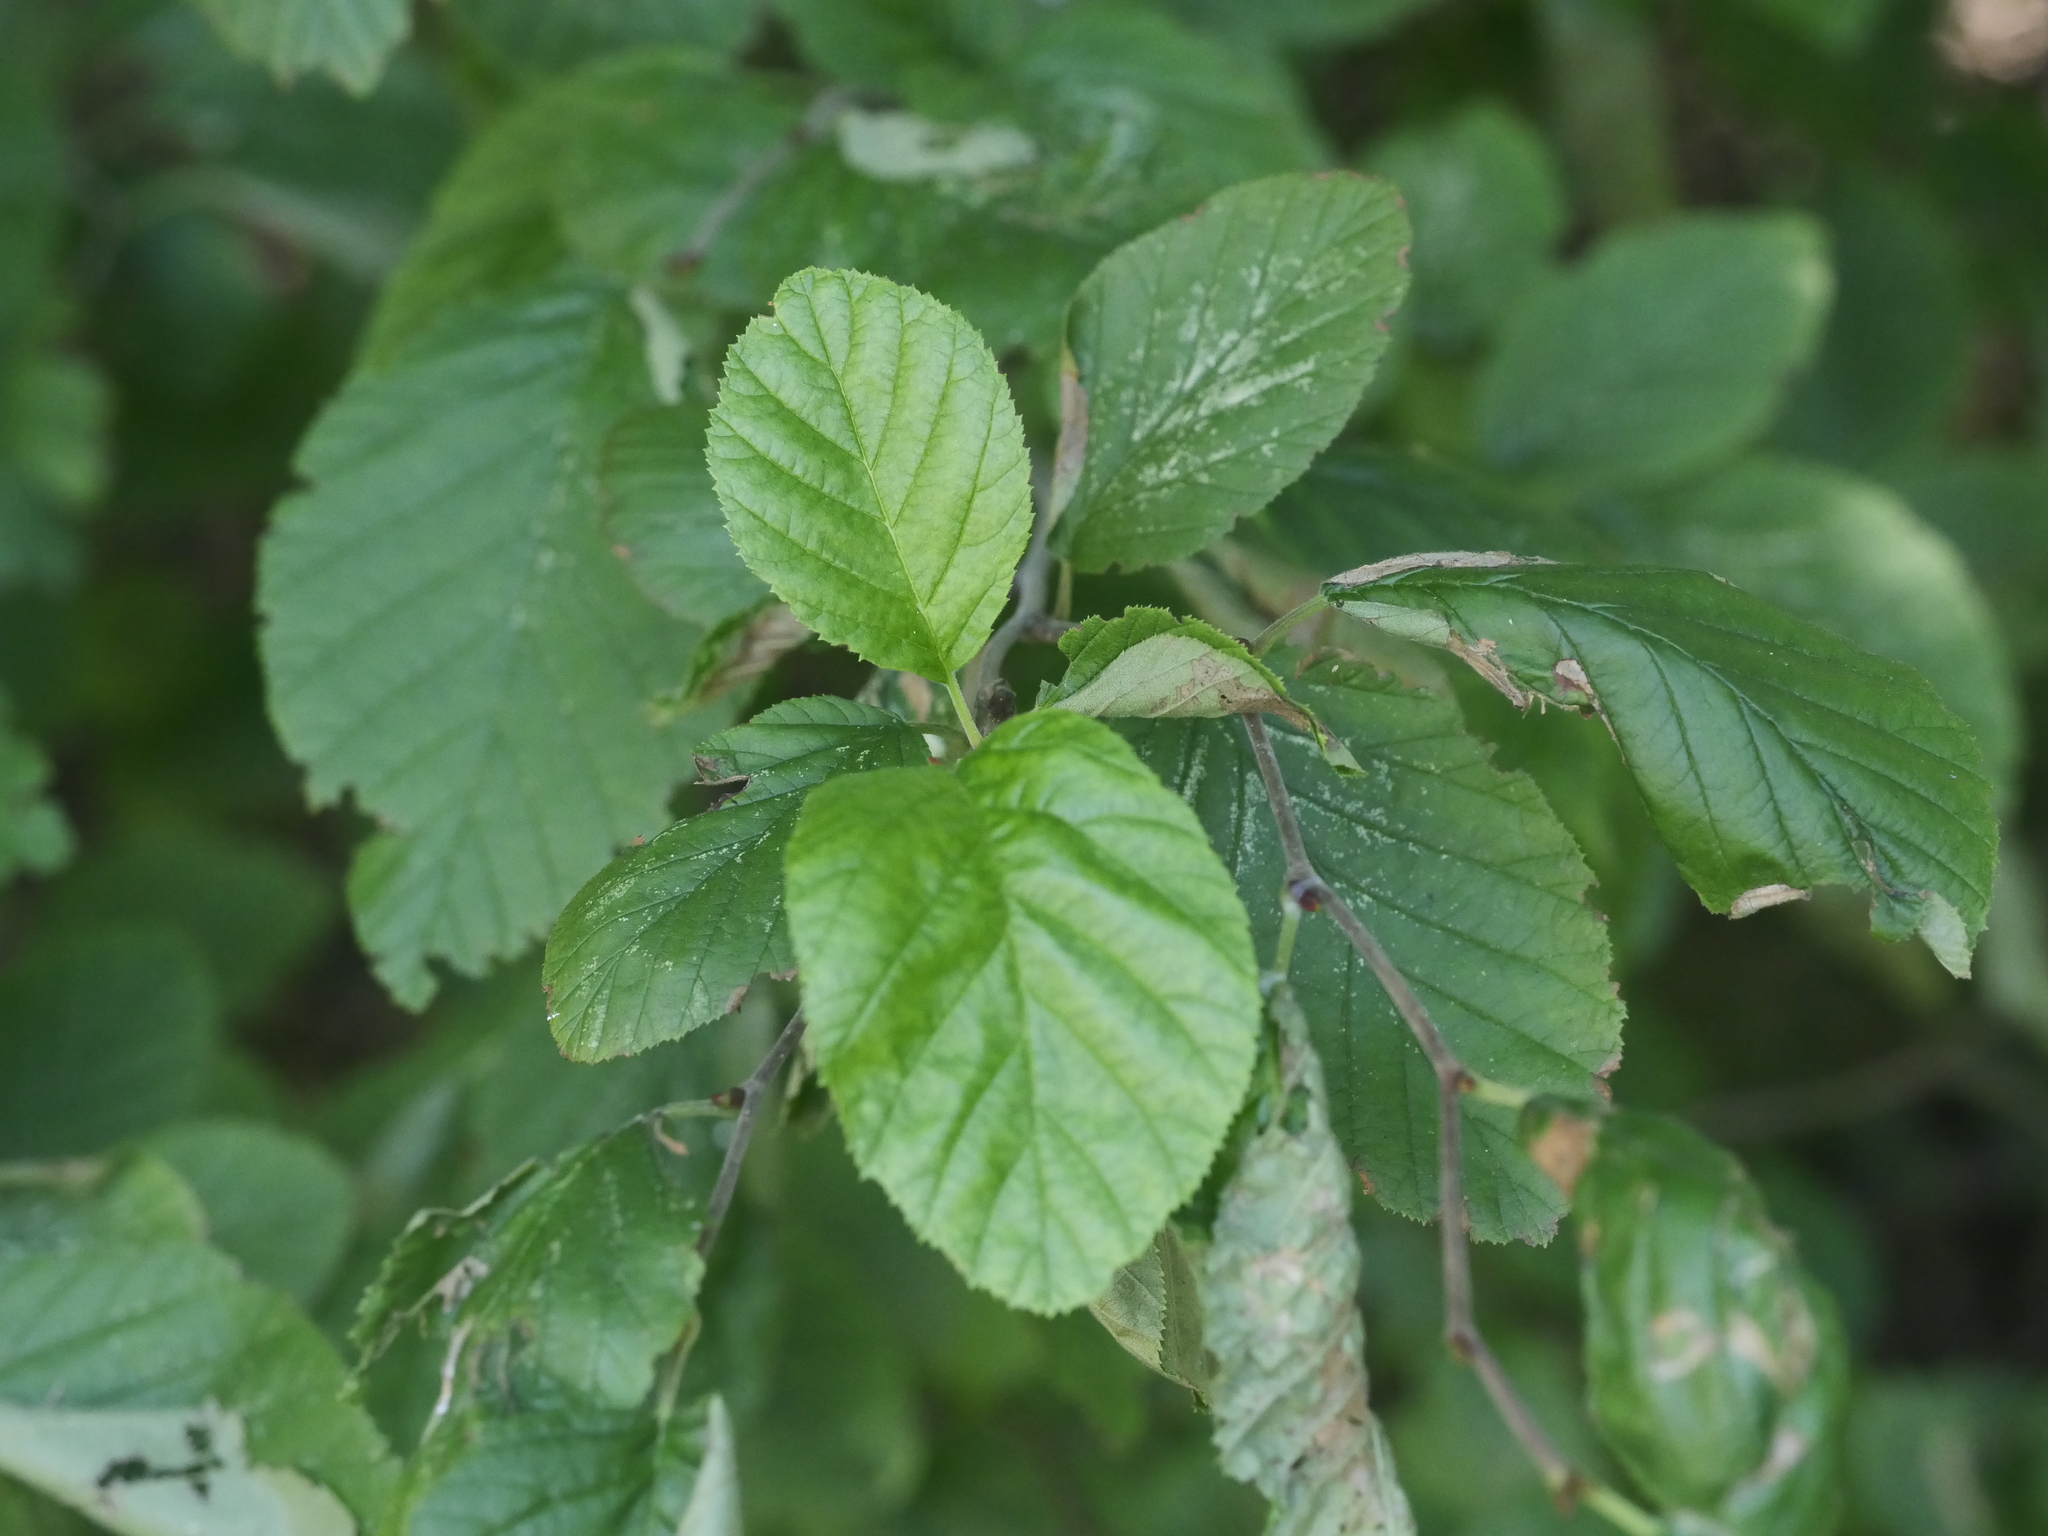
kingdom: Plantae
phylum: Tracheophyta
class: Magnoliopsida
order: Fagales
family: Betulaceae
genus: Alnus
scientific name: Alnus alnobetula
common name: Green alder
